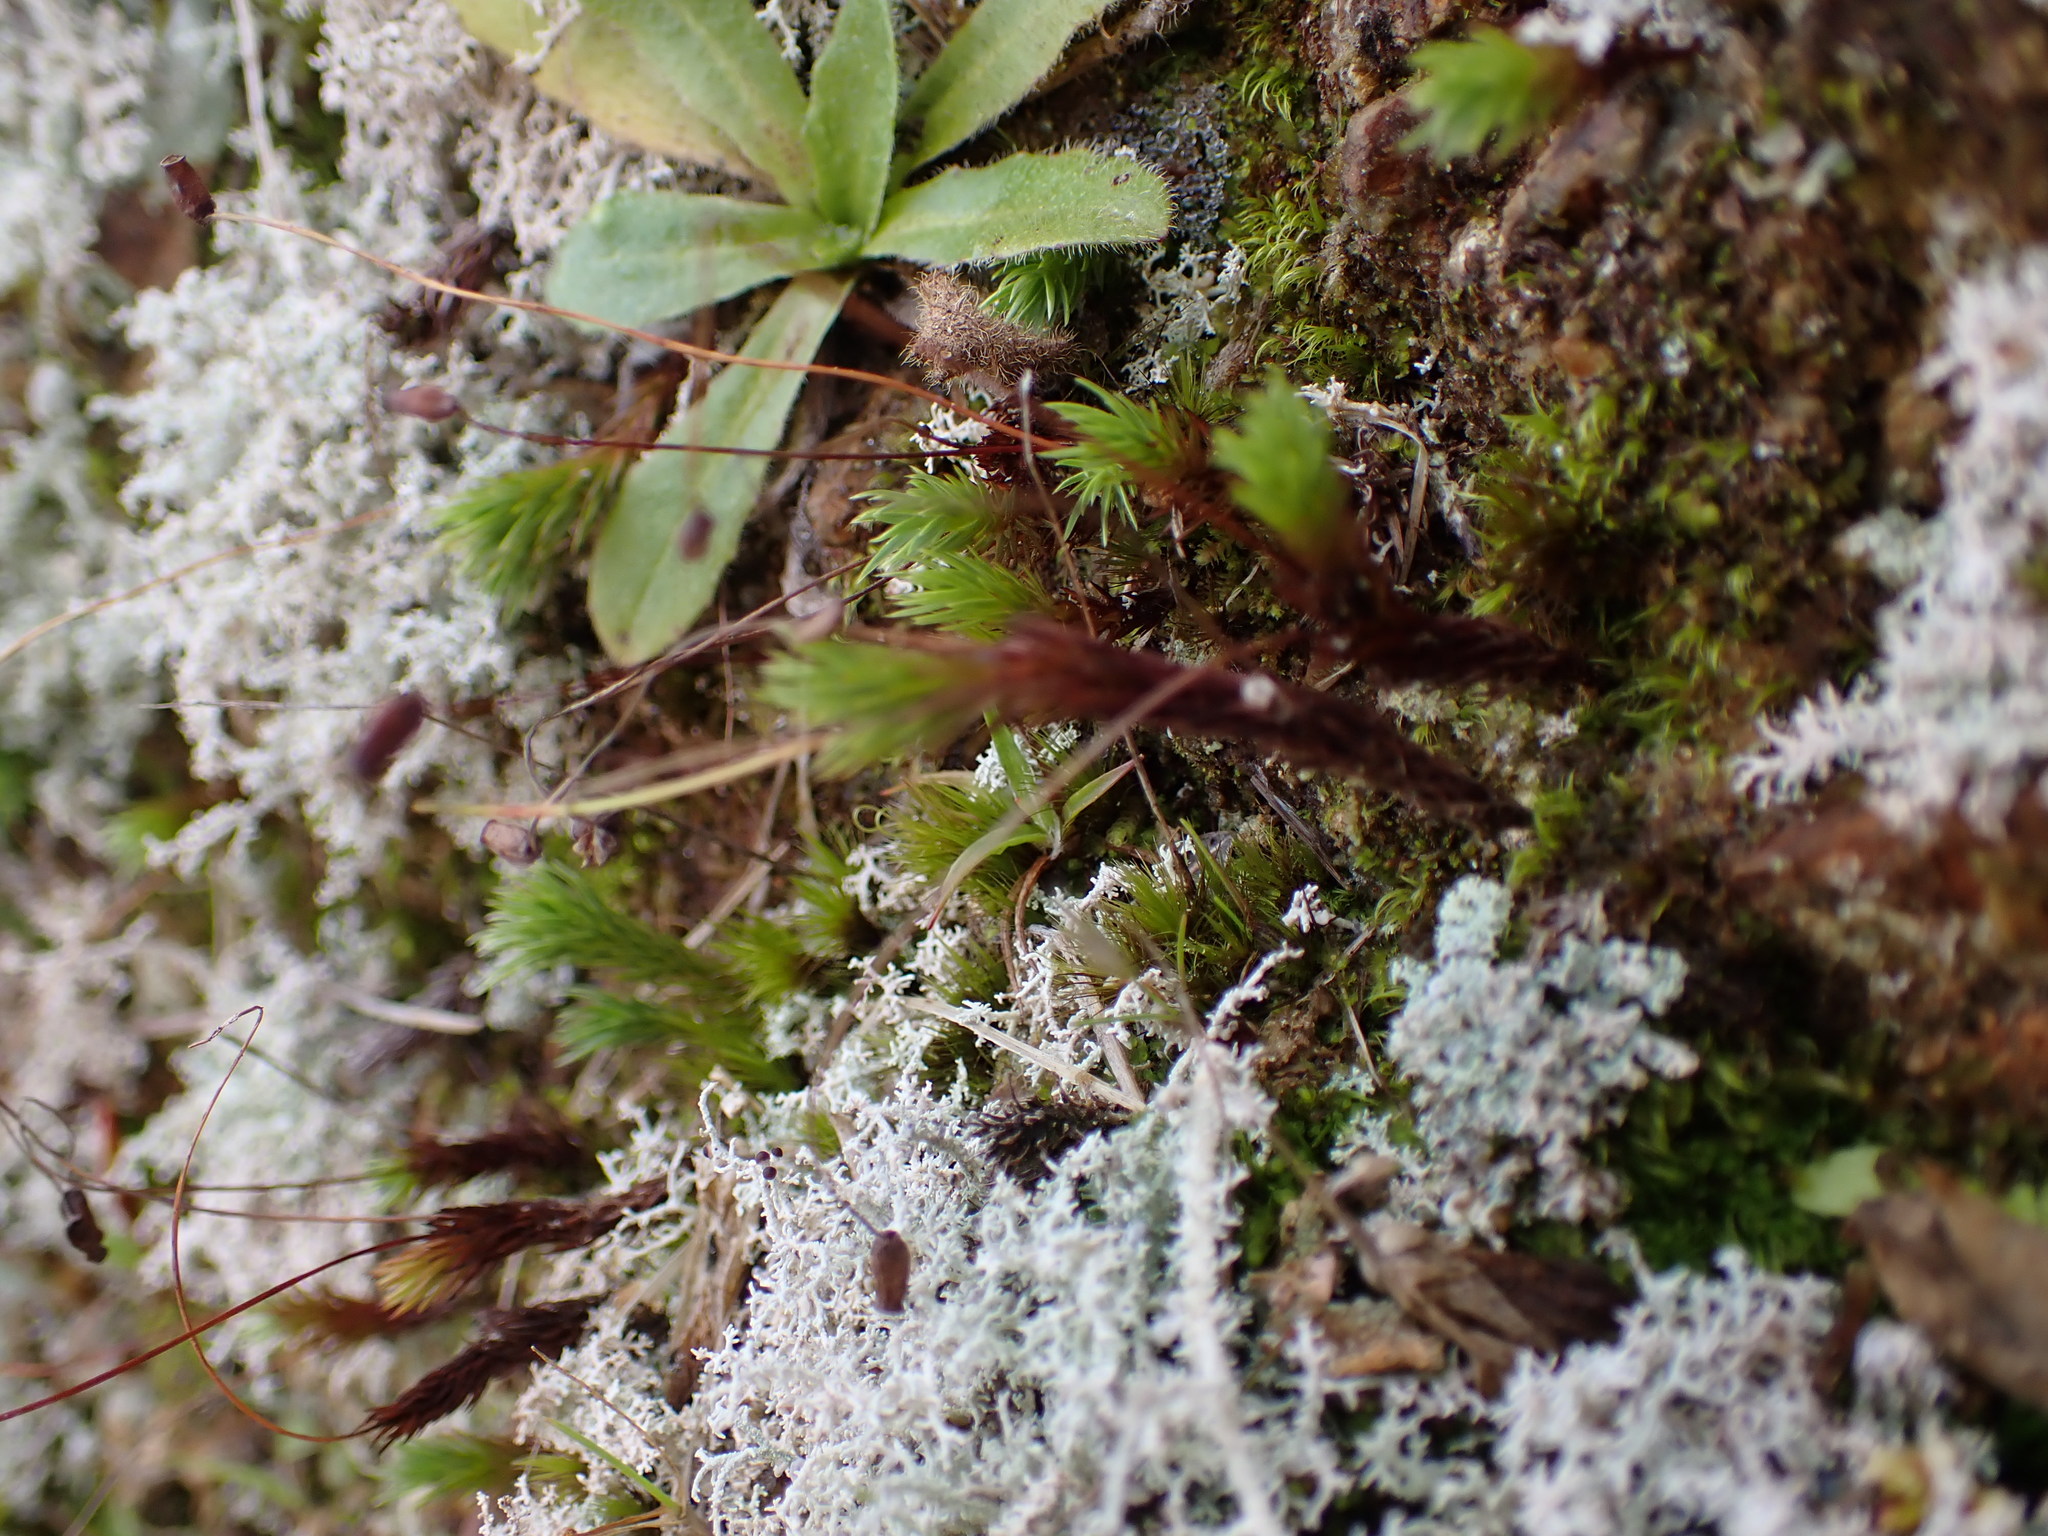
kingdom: Plantae
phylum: Bryophyta
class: Polytrichopsida
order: Polytrichales
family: Polytrichaceae
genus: Polytrichadelphus
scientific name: Polytrichadelphus magellanicus
